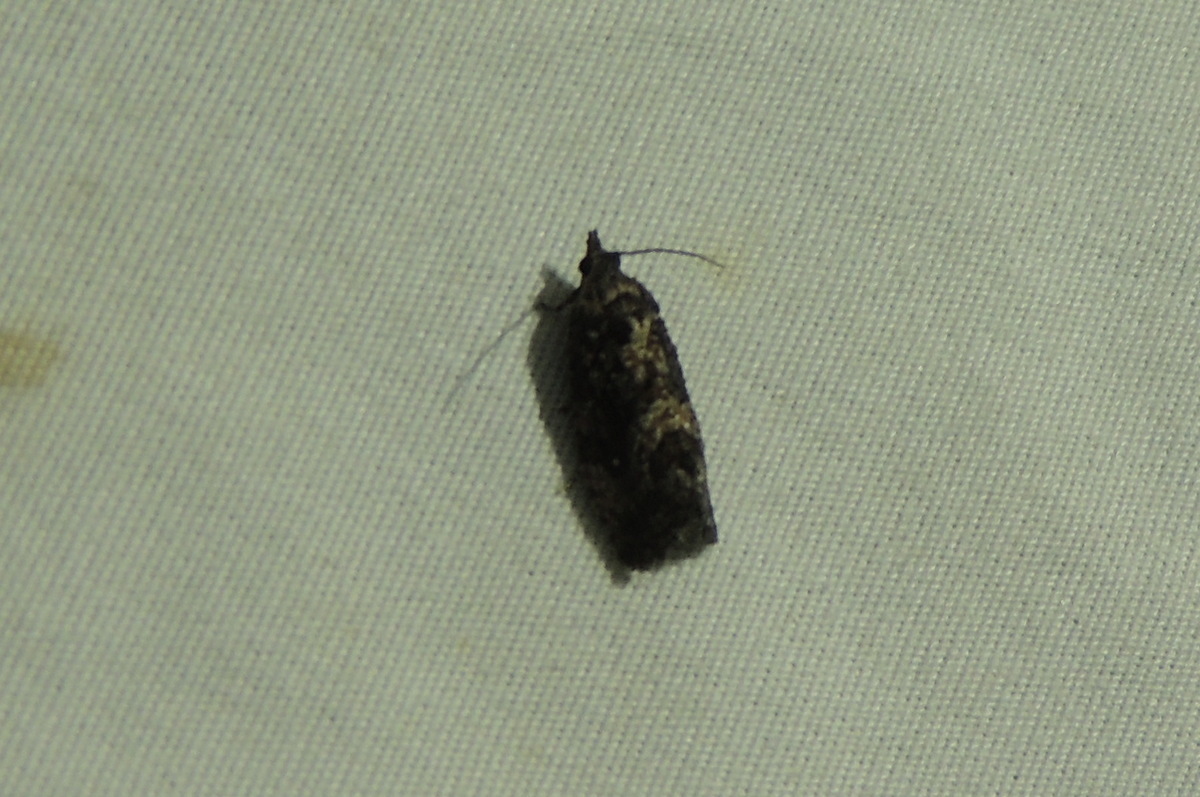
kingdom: Animalia
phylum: Arthropoda
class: Insecta
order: Lepidoptera
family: Tortricidae
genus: Gymnandrosoma
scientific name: Gymnandrosoma punctidiscanum
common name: Dotted ecdytolopha moth
